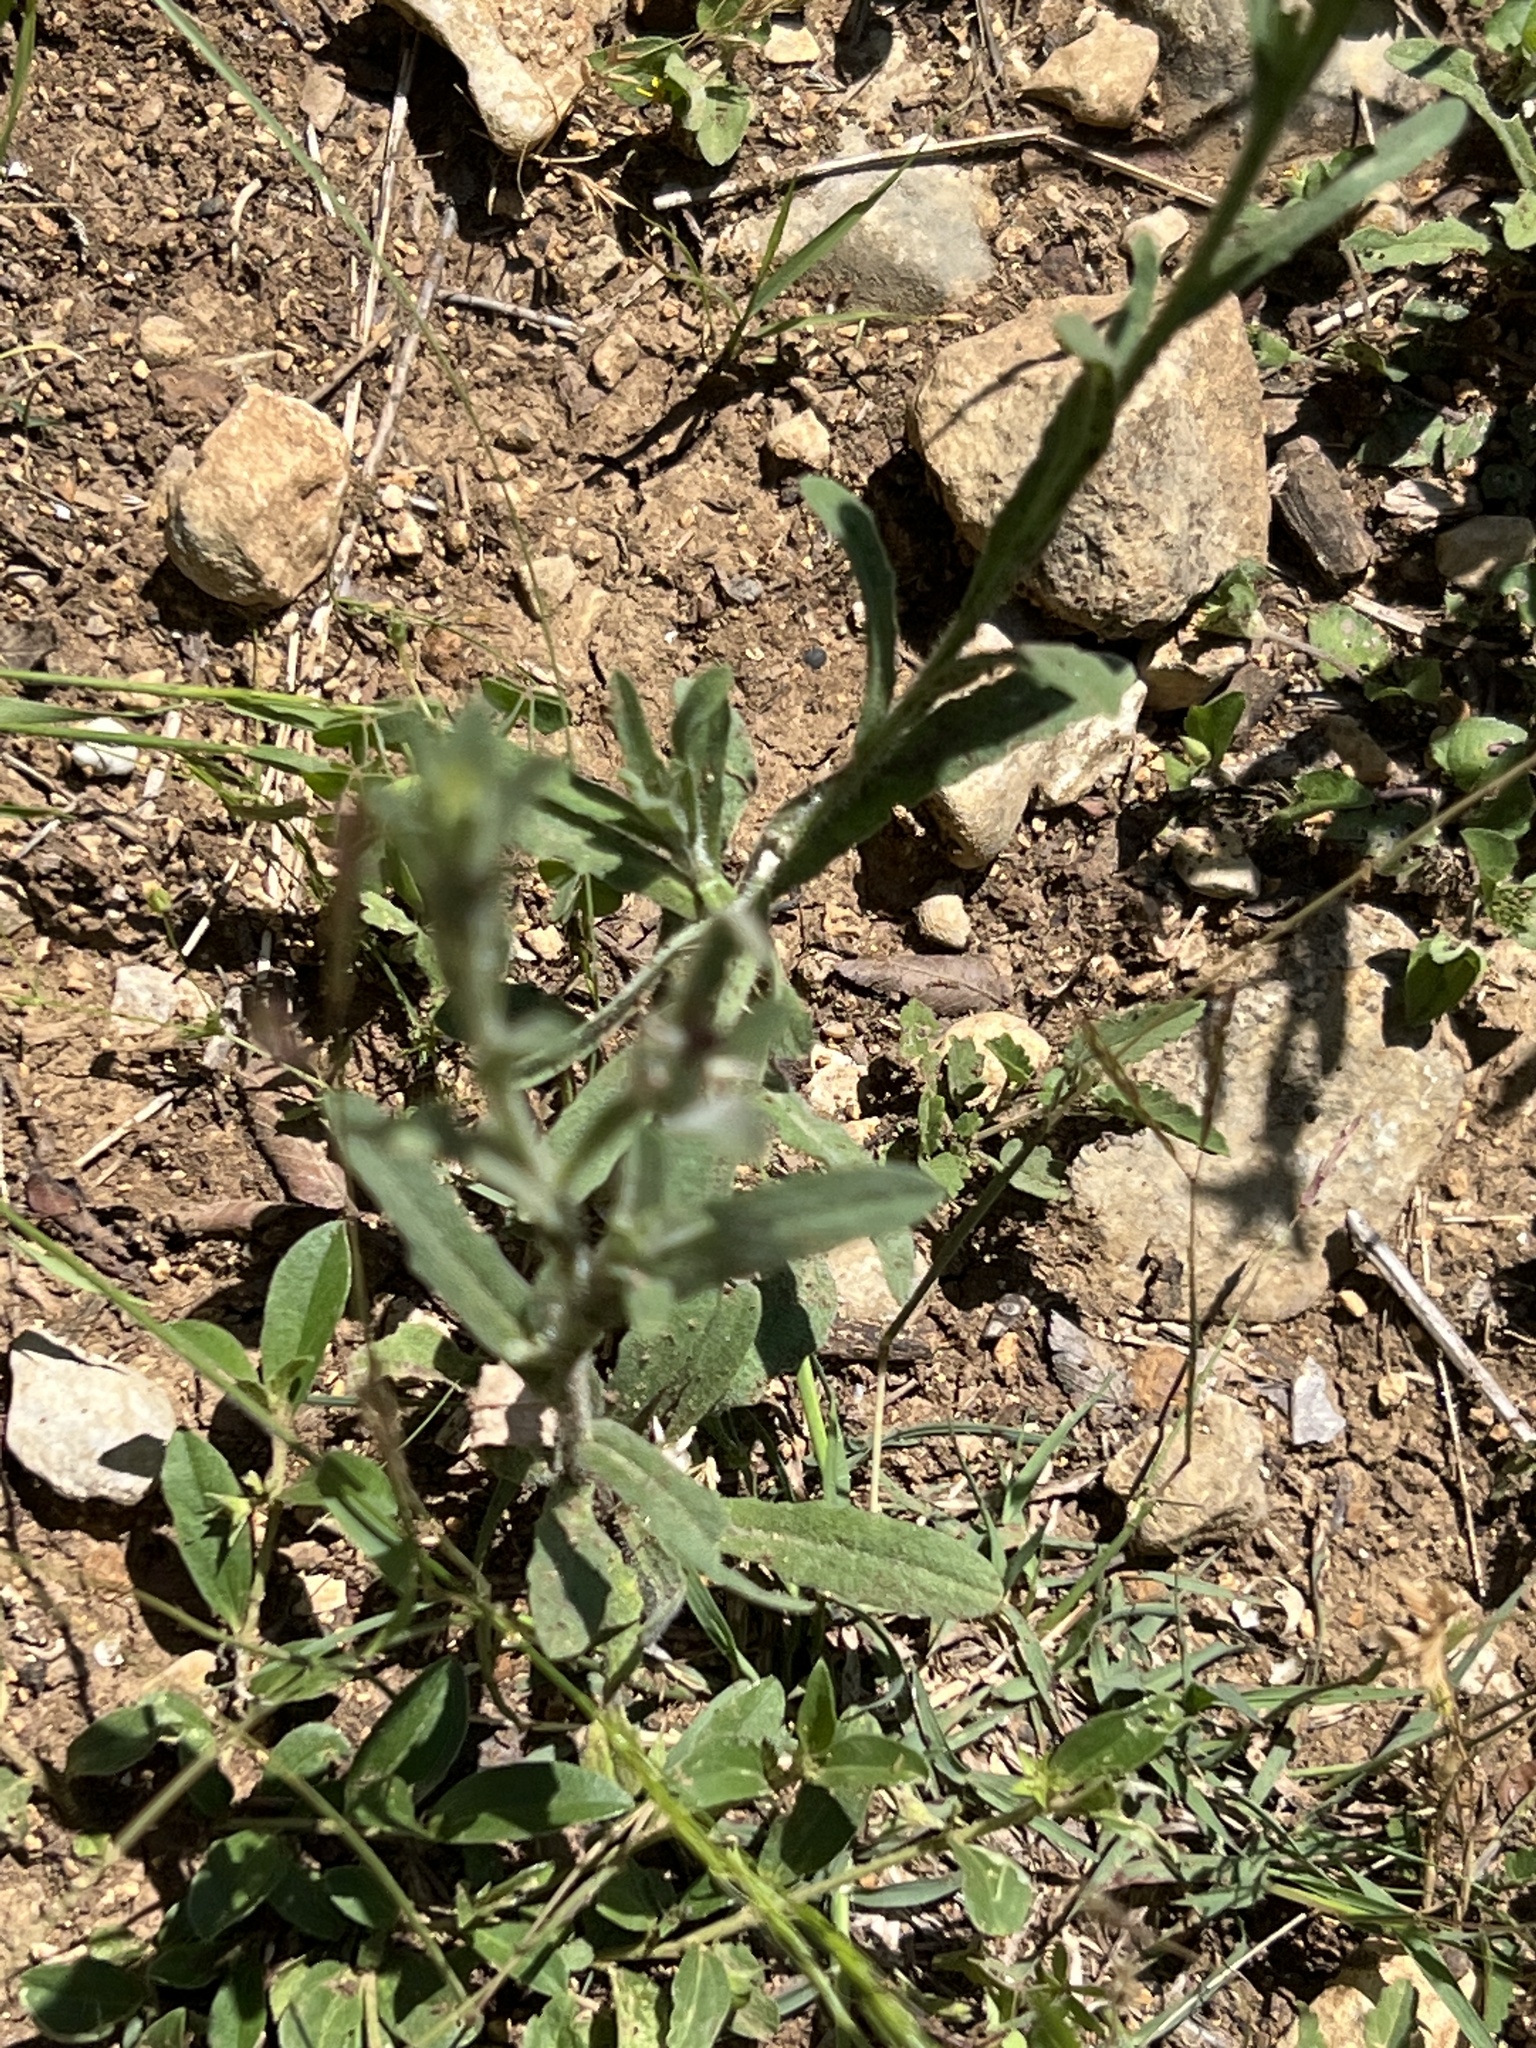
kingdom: Plantae
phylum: Tracheophyta
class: Magnoliopsida
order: Asterales
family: Asteraceae
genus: Centaurea
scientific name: Centaurea melitensis
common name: Maltese star-thistle
